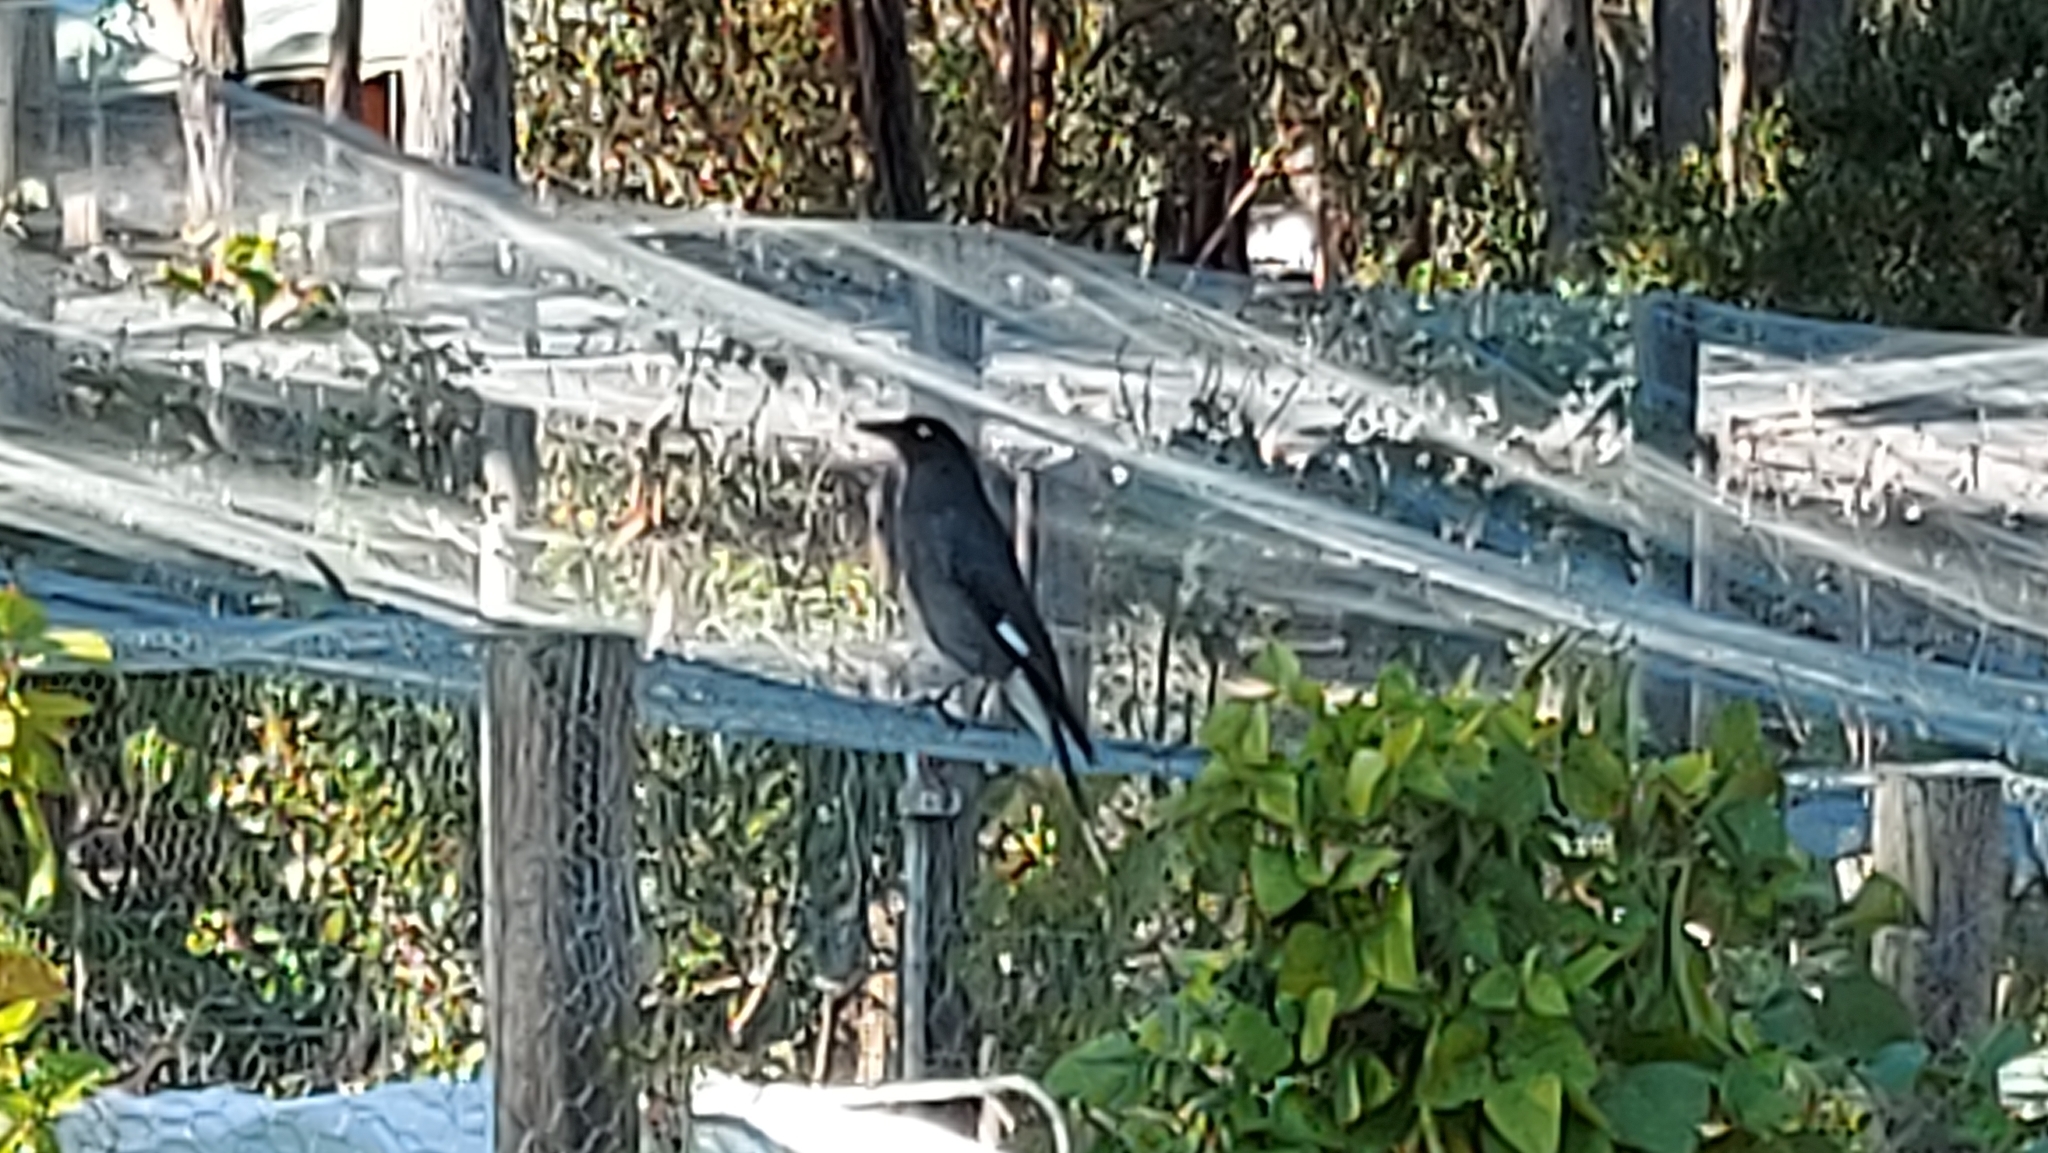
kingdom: Animalia
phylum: Chordata
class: Aves
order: Passeriformes
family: Cracticidae
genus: Strepera
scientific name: Strepera graculina
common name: Pied currawong
